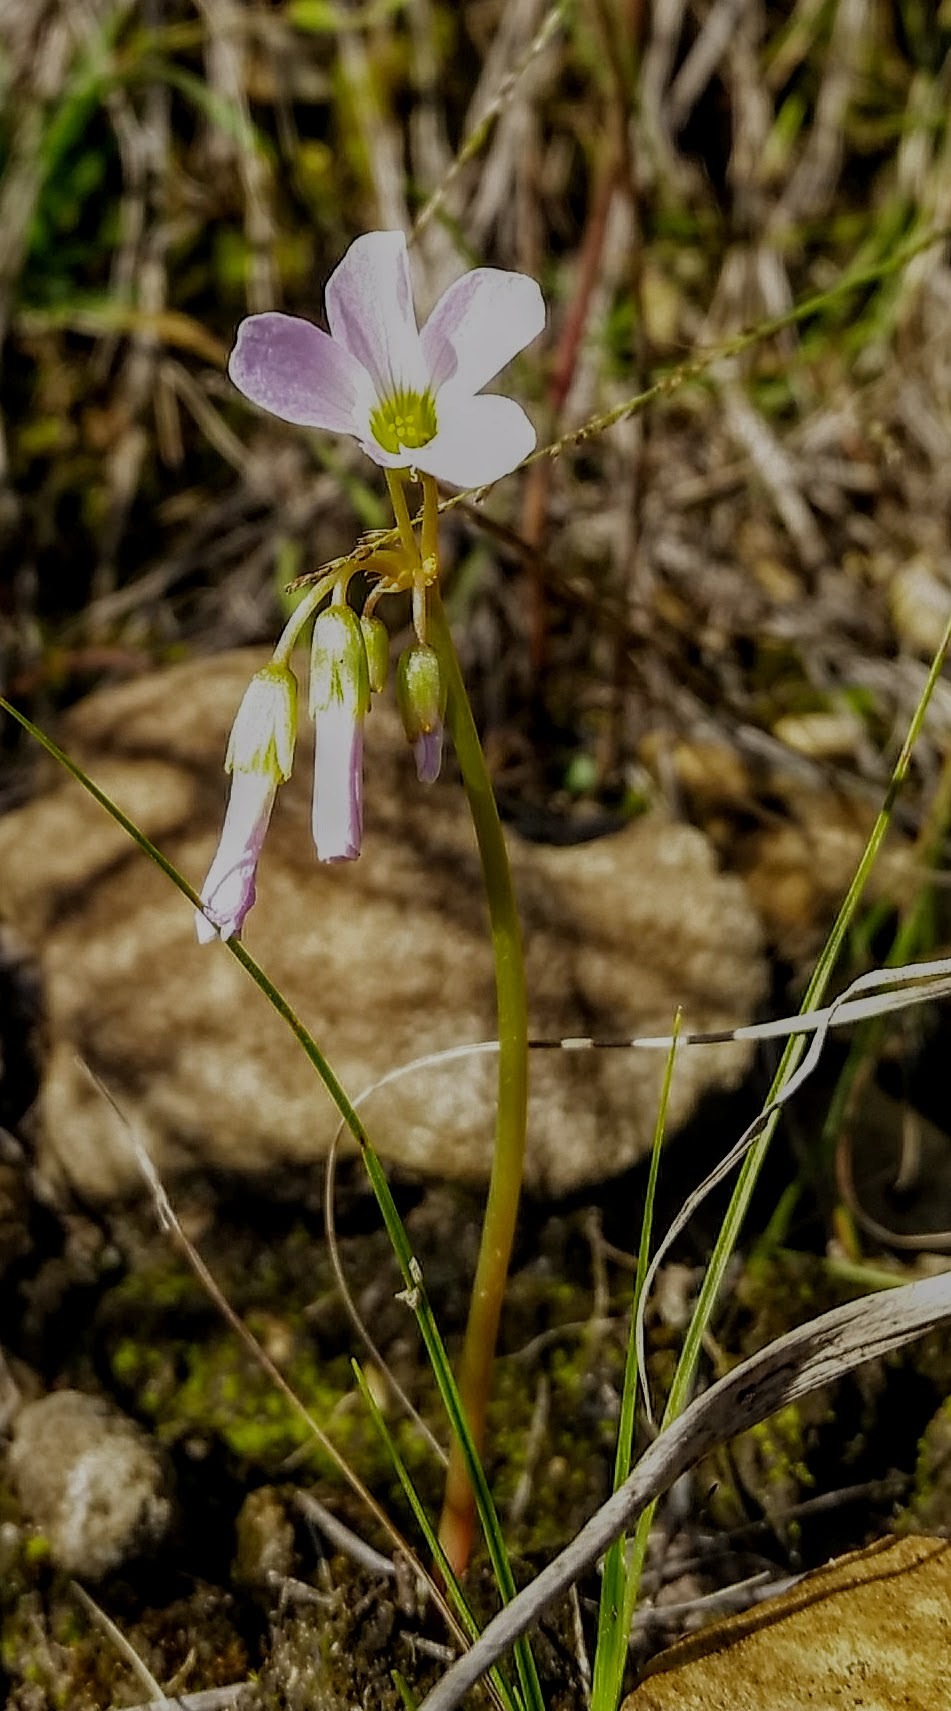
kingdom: Plantae
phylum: Tracheophyta
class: Magnoliopsida
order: Oxalidales
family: Oxalidaceae
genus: Oxalis
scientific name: Oxalis violacea
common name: Violet wood-sorrel
